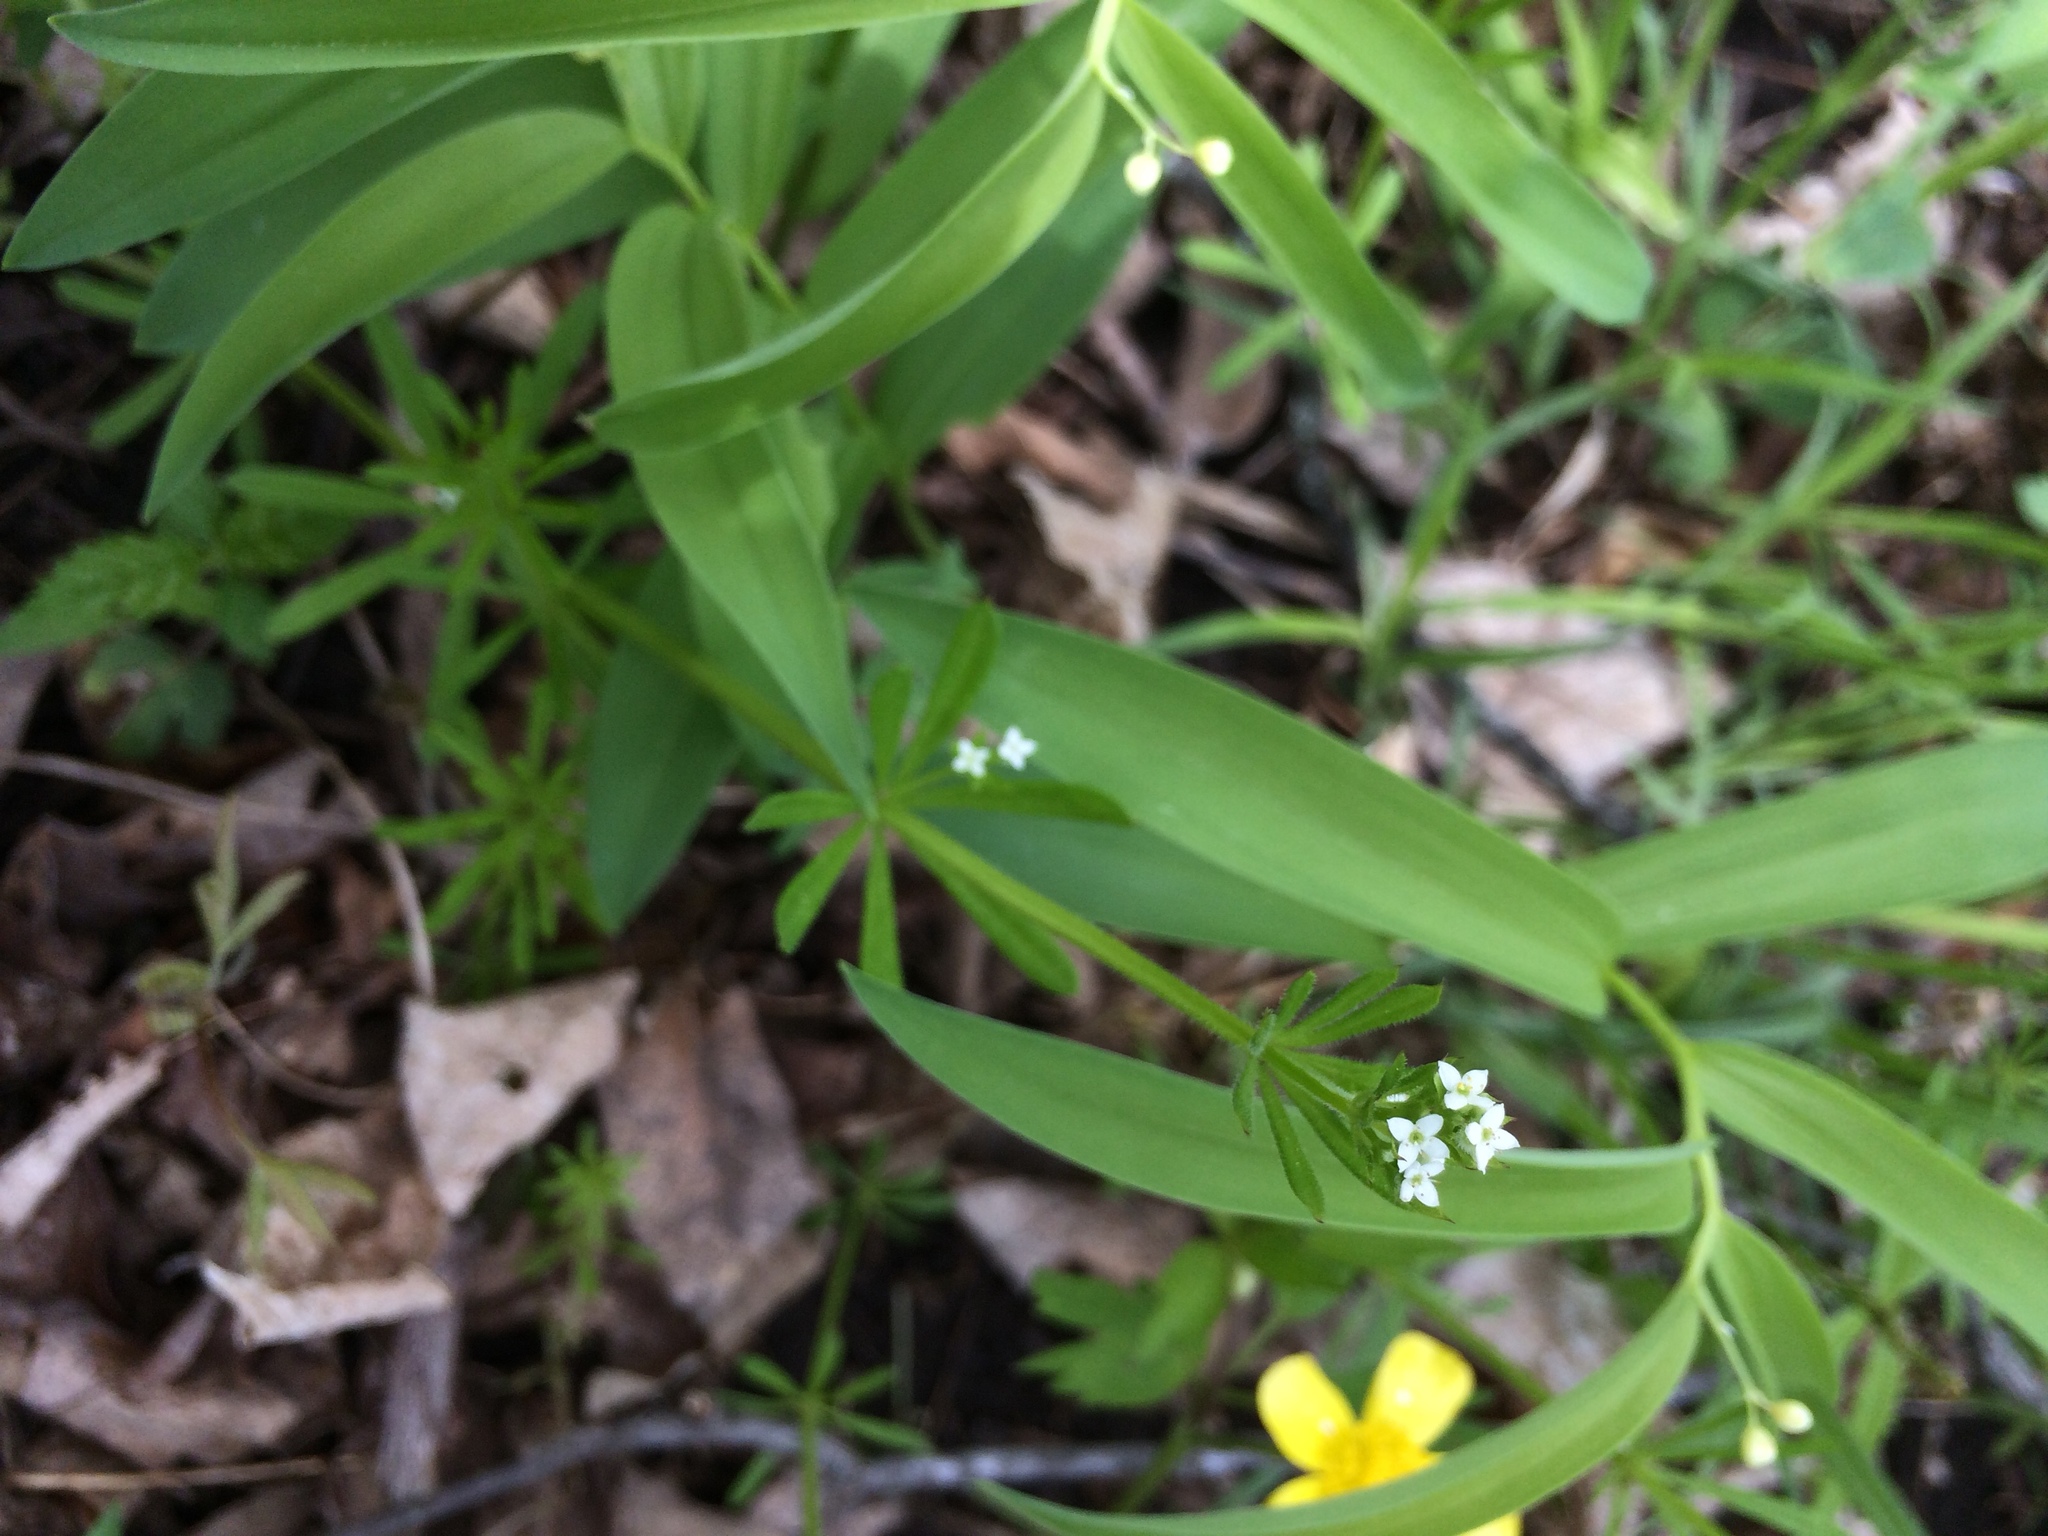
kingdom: Plantae
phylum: Tracheophyta
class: Magnoliopsida
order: Gentianales
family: Rubiaceae
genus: Galium
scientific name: Galium aparine
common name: Cleavers
